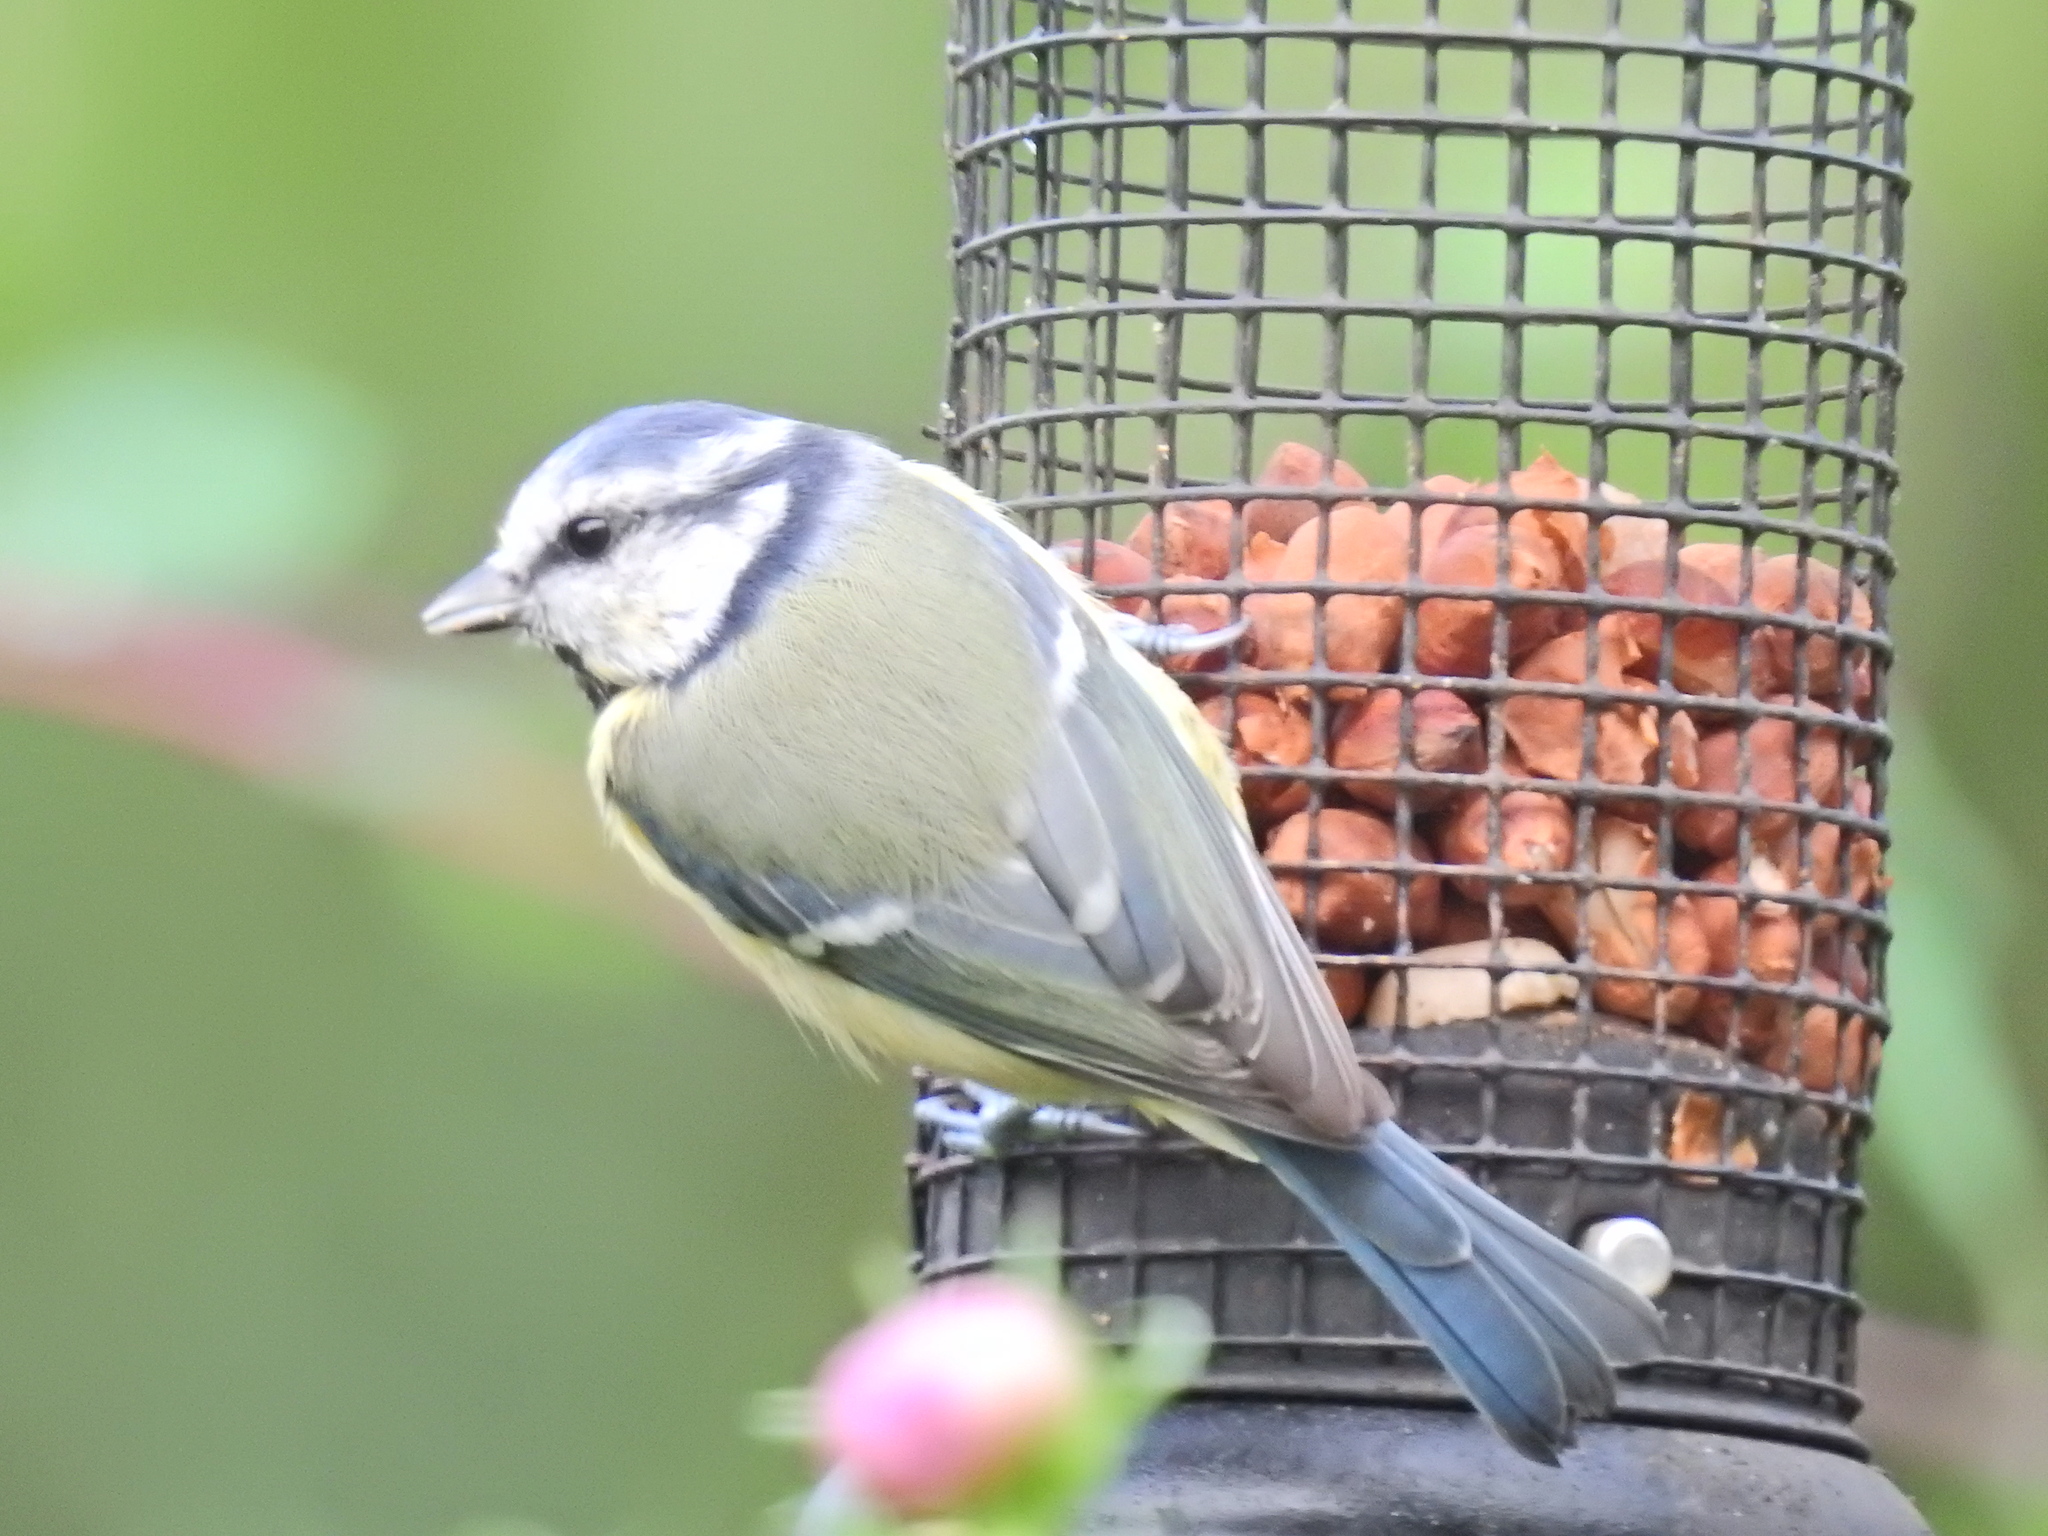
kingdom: Animalia
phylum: Chordata
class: Aves
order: Passeriformes
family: Paridae
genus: Cyanistes
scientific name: Cyanistes caeruleus
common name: Eurasian blue tit
